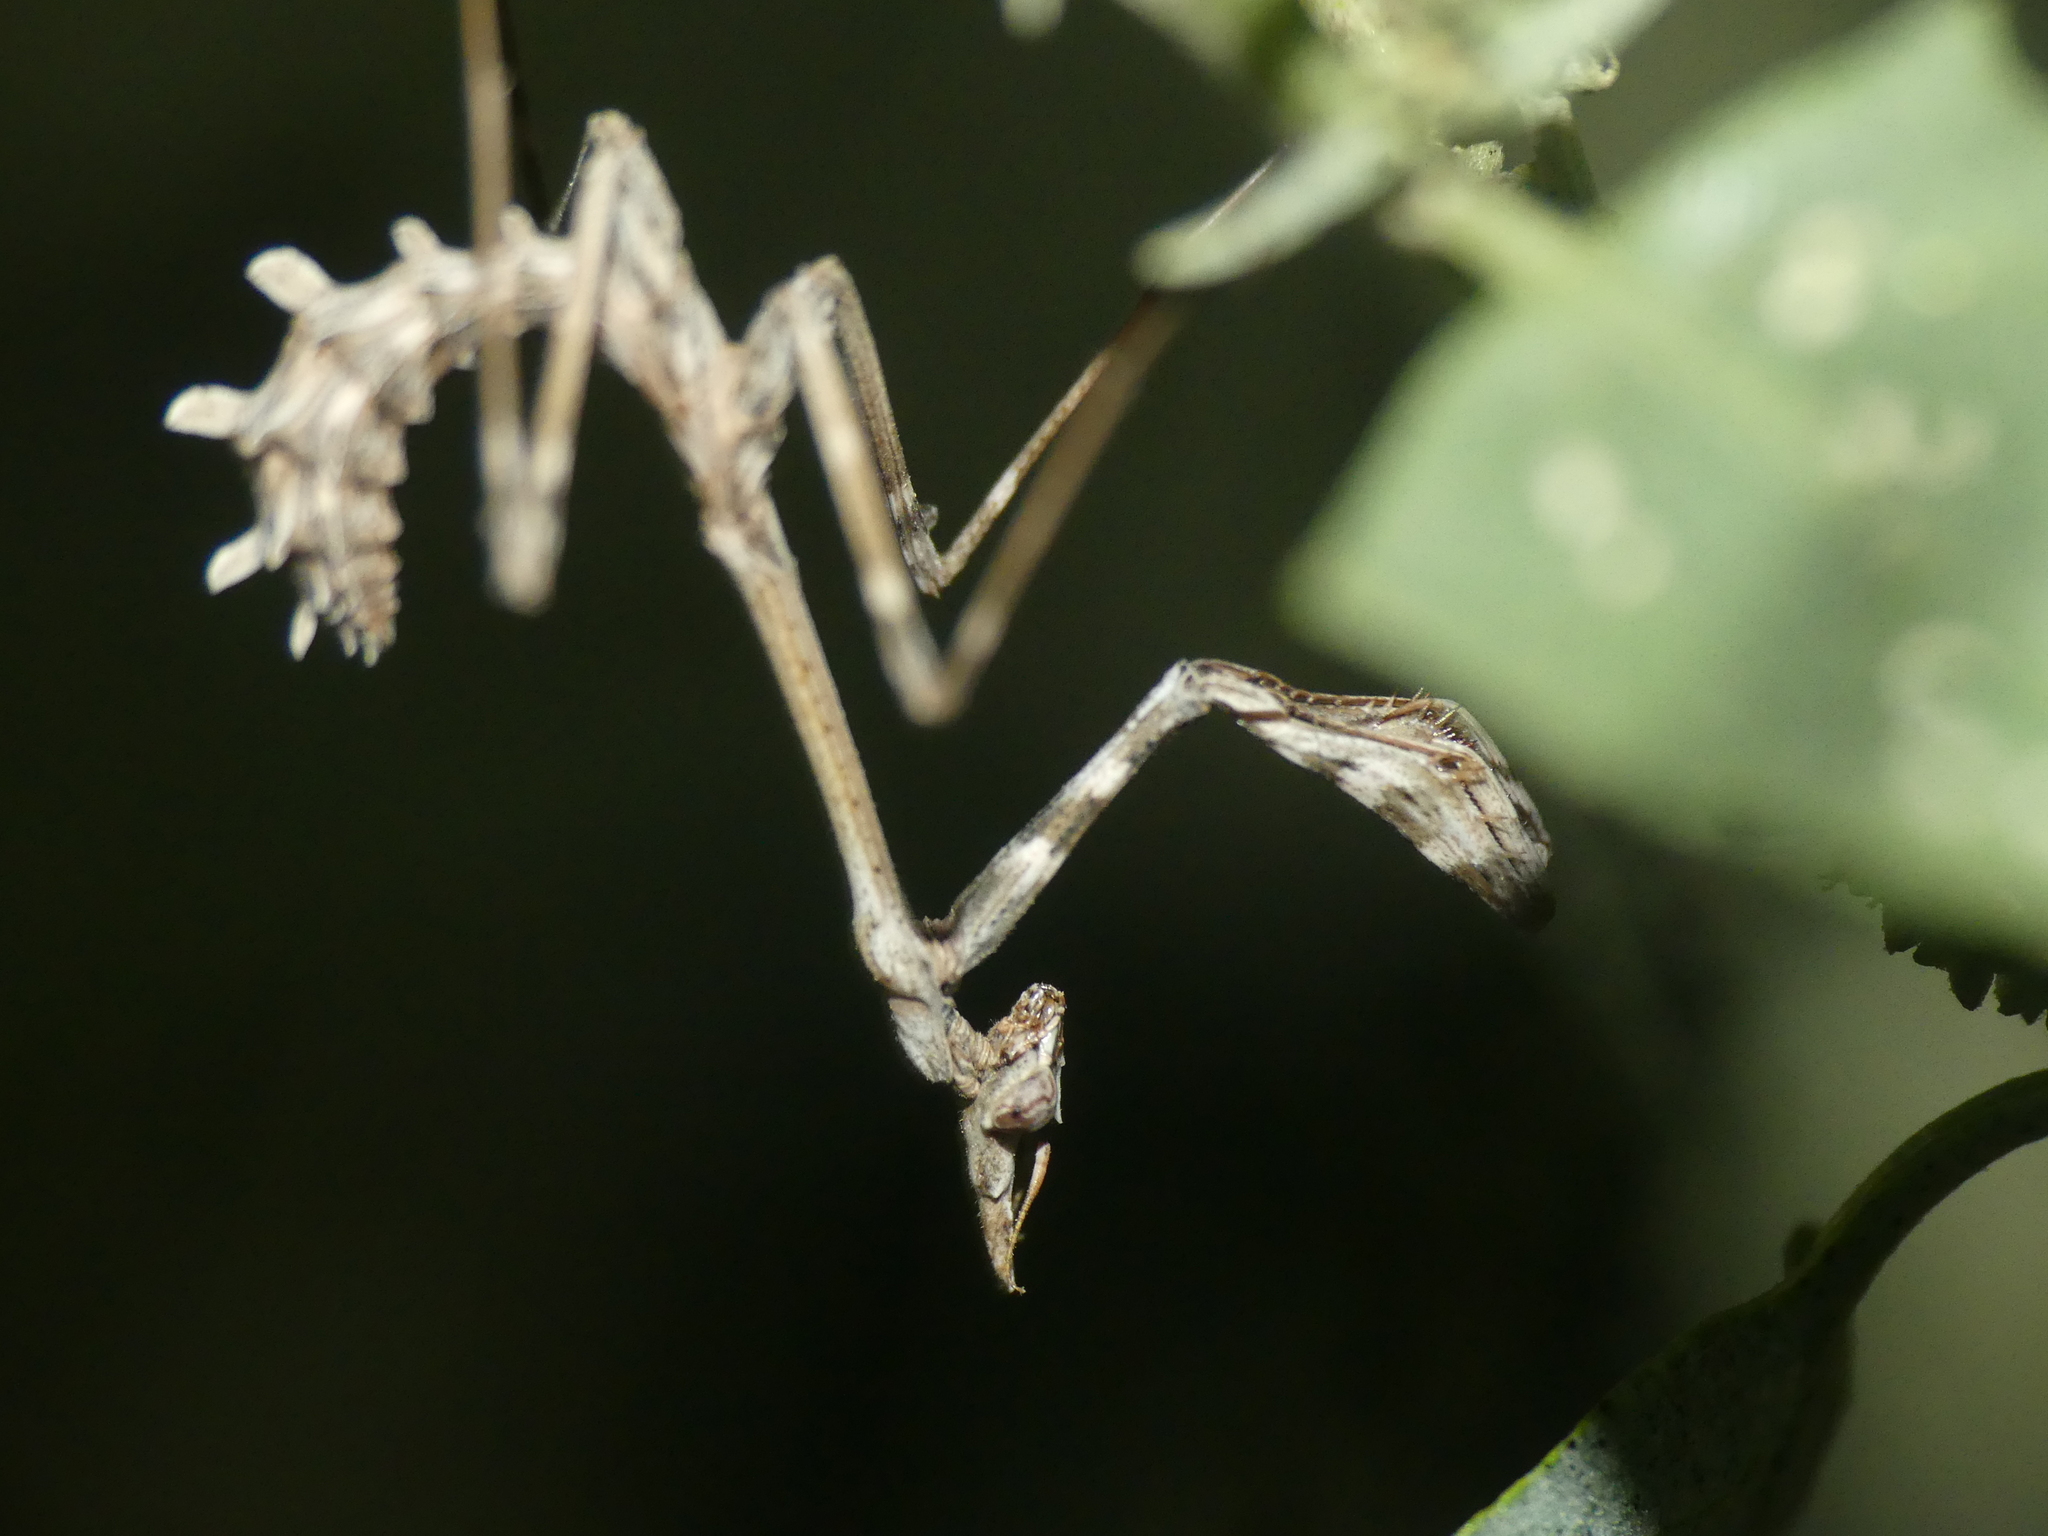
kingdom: Animalia
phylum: Arthropoda
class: Insecta
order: Mantodea
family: Empusidae
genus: Empusa
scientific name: Empusa fasciata
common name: Devil's mare
